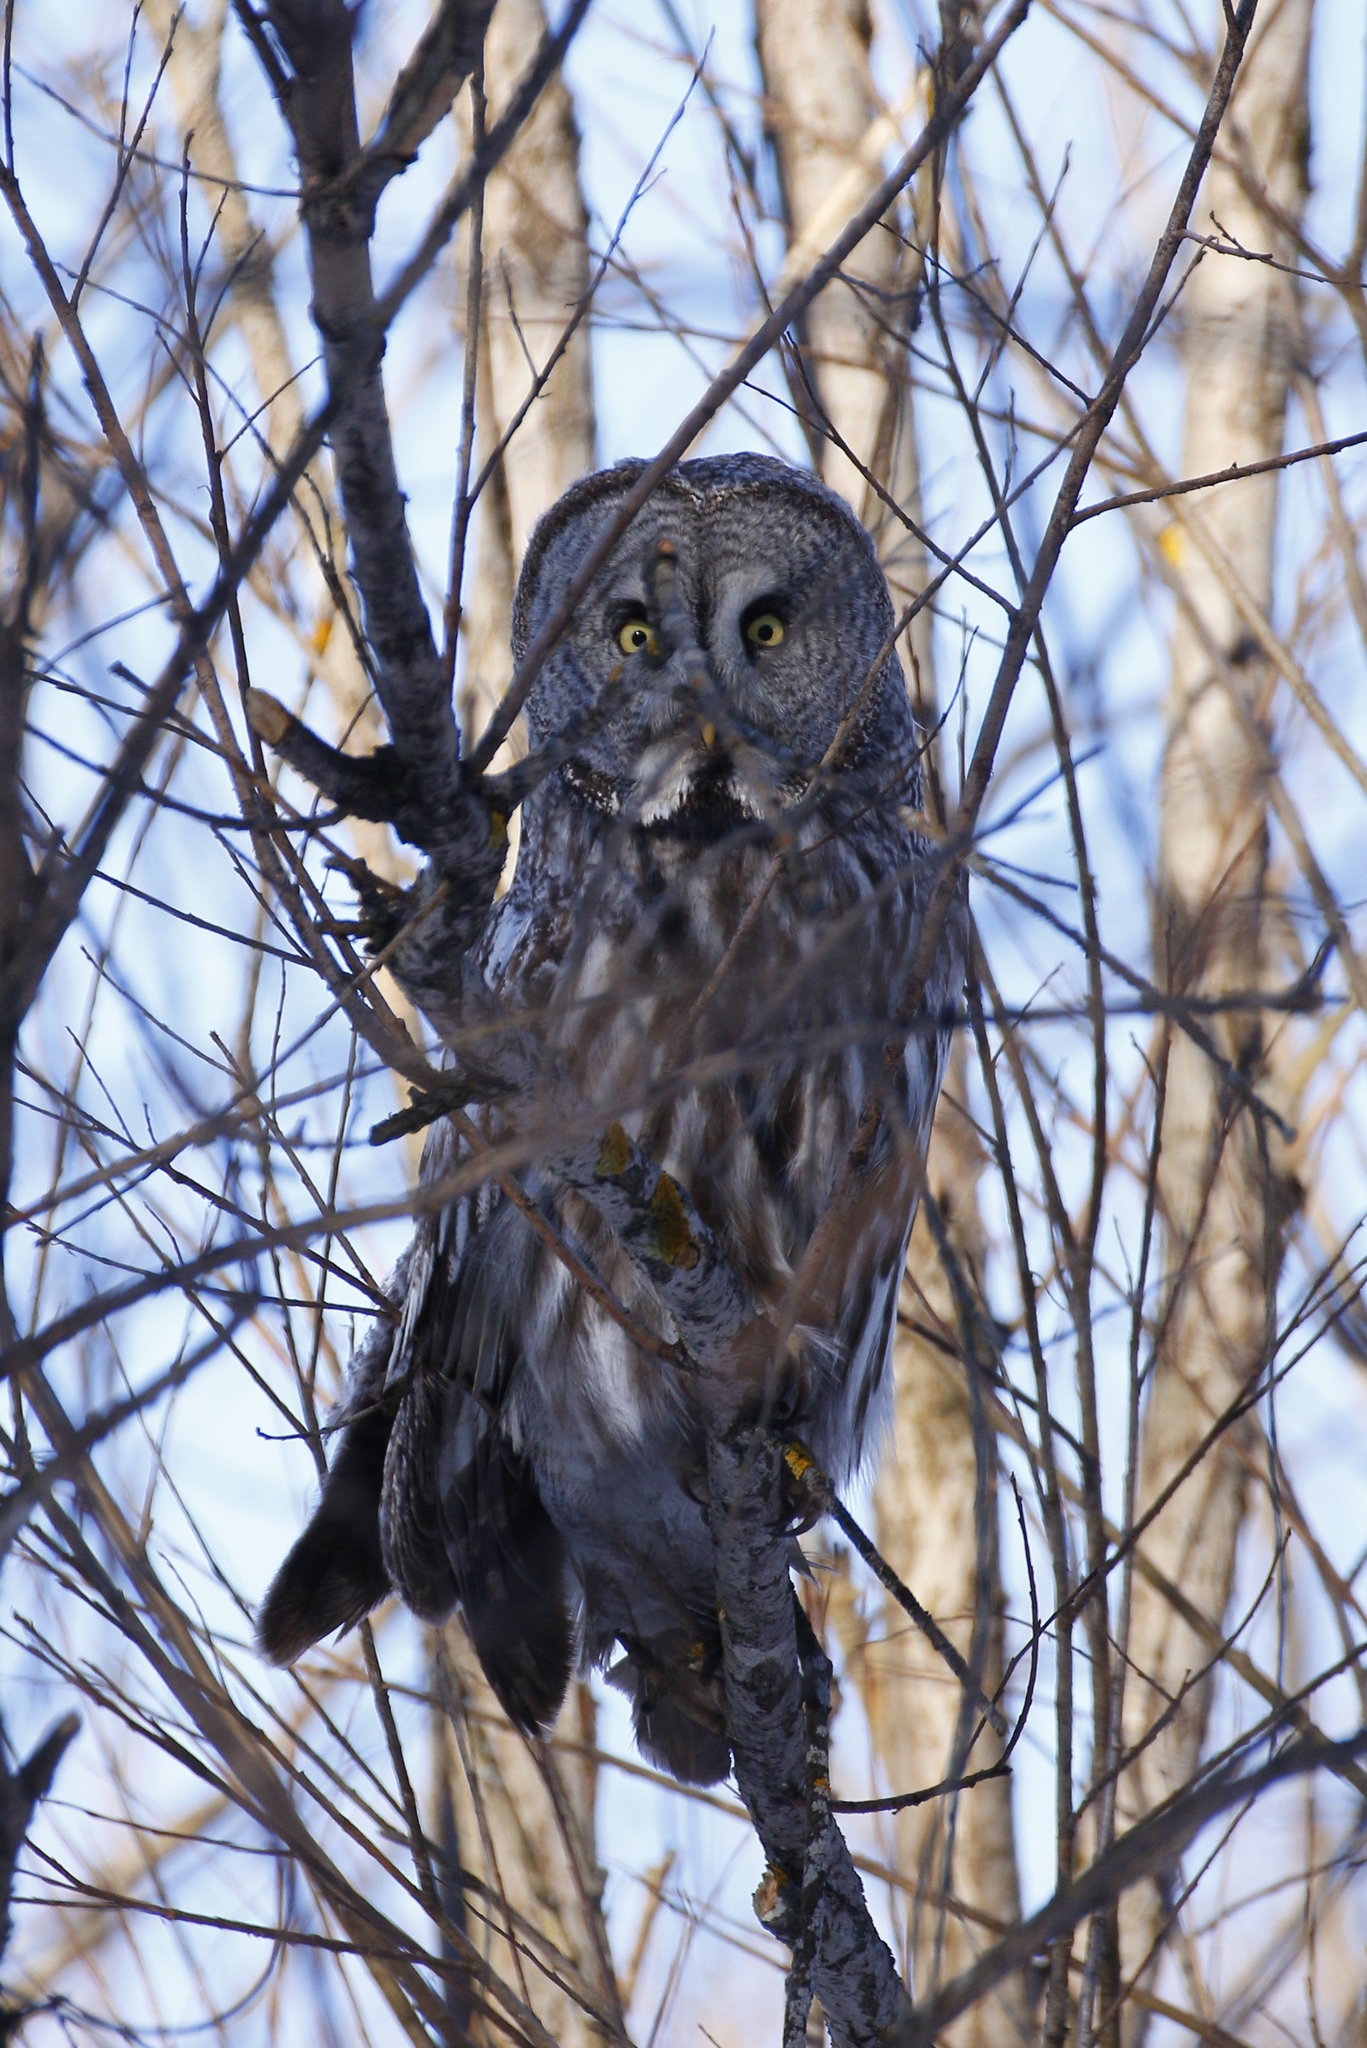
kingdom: Animalia
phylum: Chordata
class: Aves
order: Strigiformes
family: Strigidae
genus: Strix
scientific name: Strix nebulosa
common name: Great grey owl
